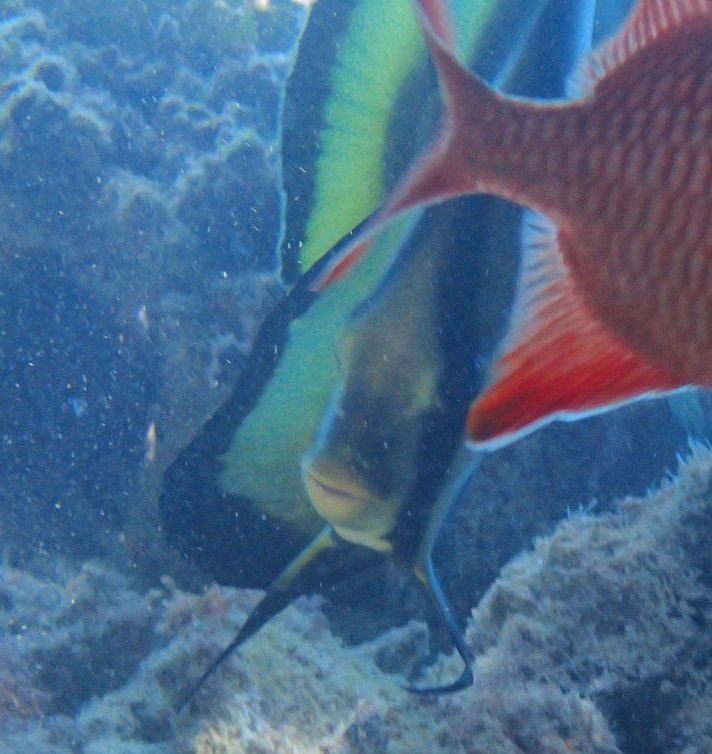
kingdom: Animalia
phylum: Chordata
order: Perciformes
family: Ephippidae
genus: Platax
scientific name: Platax pinnatus
